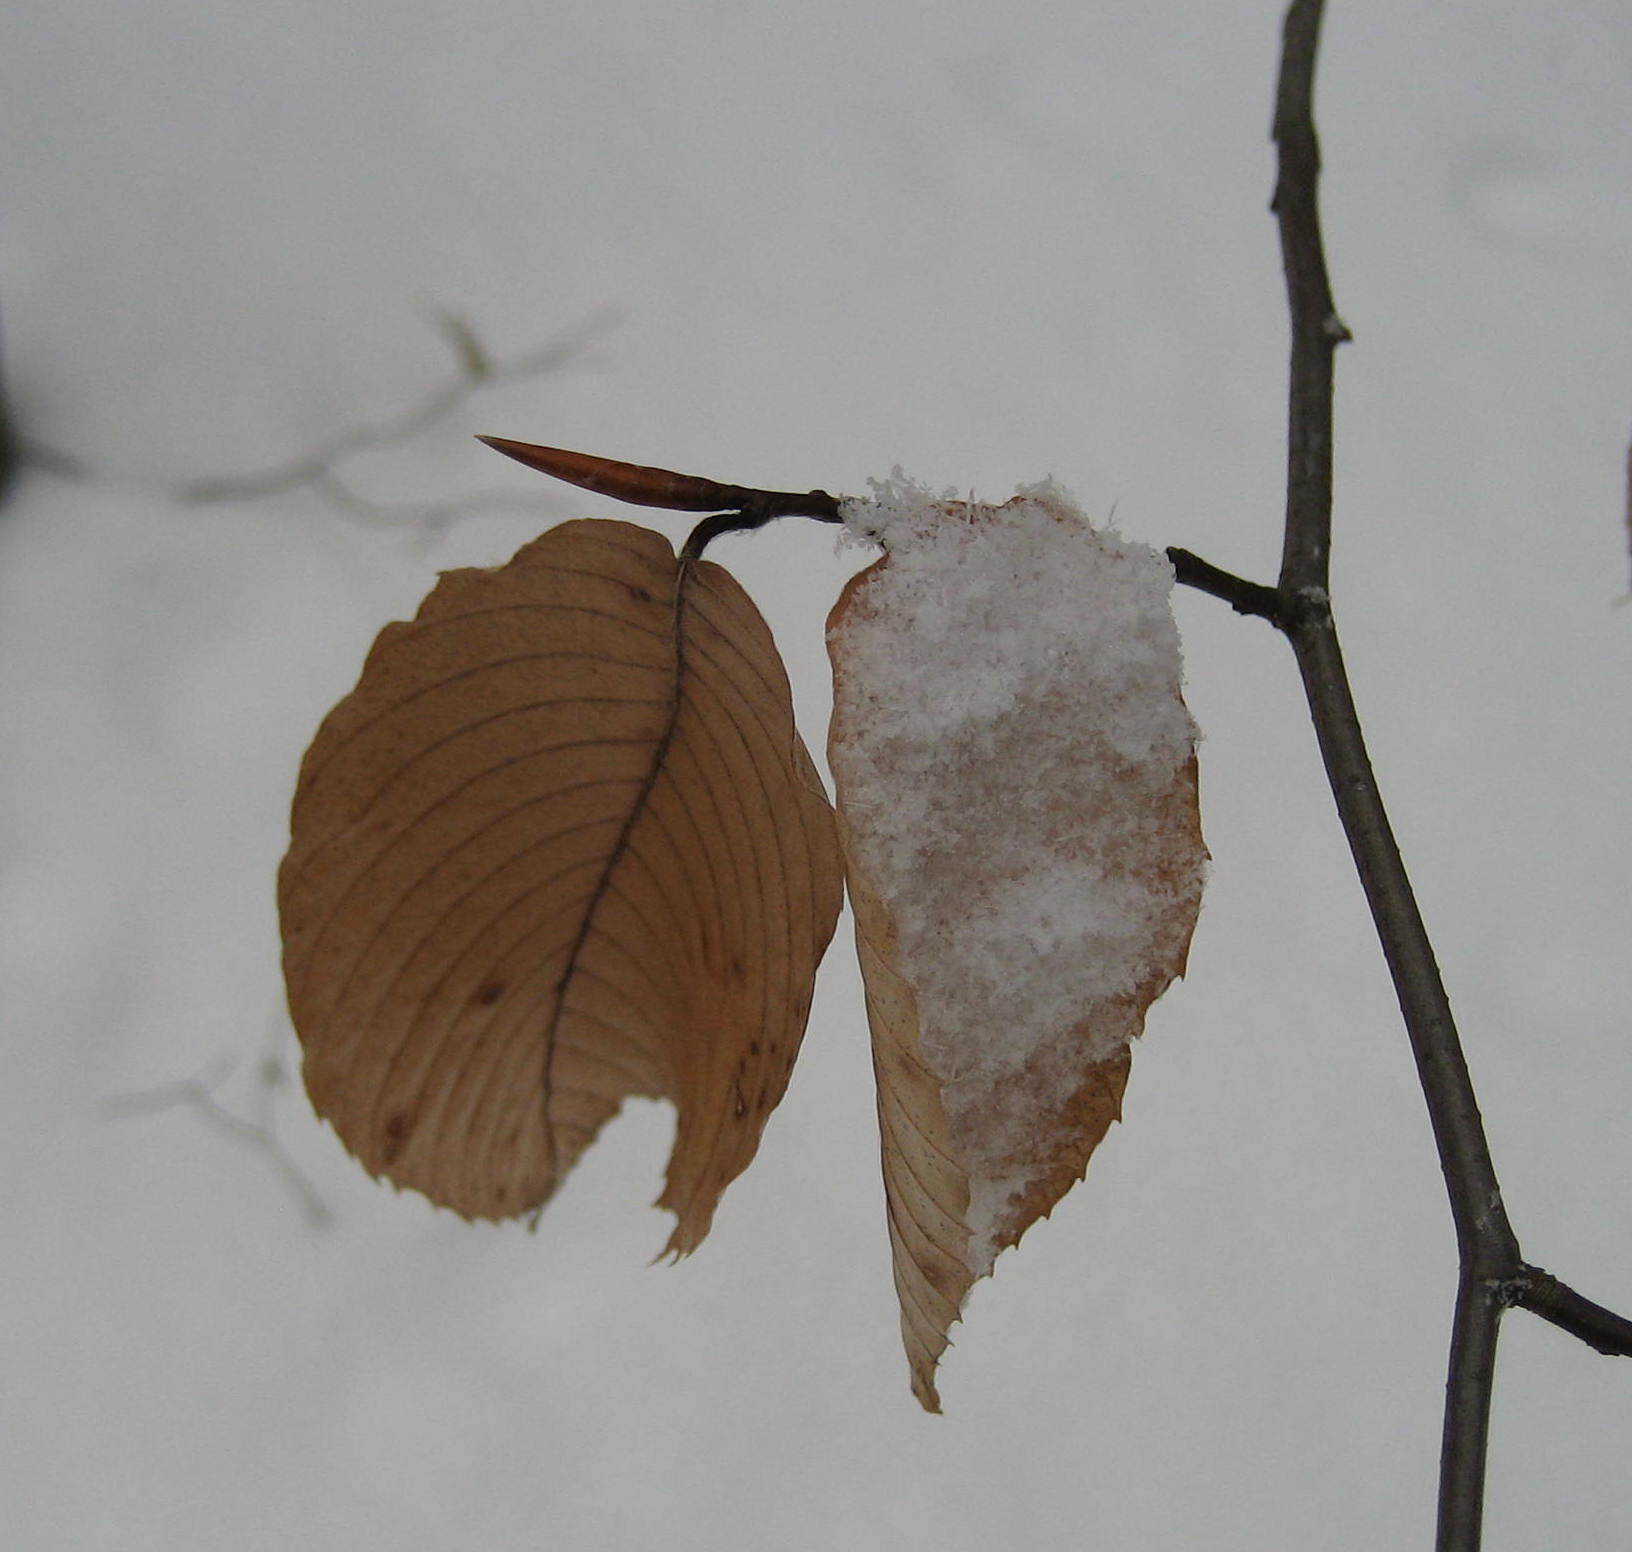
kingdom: Plantae
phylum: Tracheophyta
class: Magnoliopsida
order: Fagales
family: Fagaceae
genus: Fagus
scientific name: Fagus grandifolia
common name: American beech
